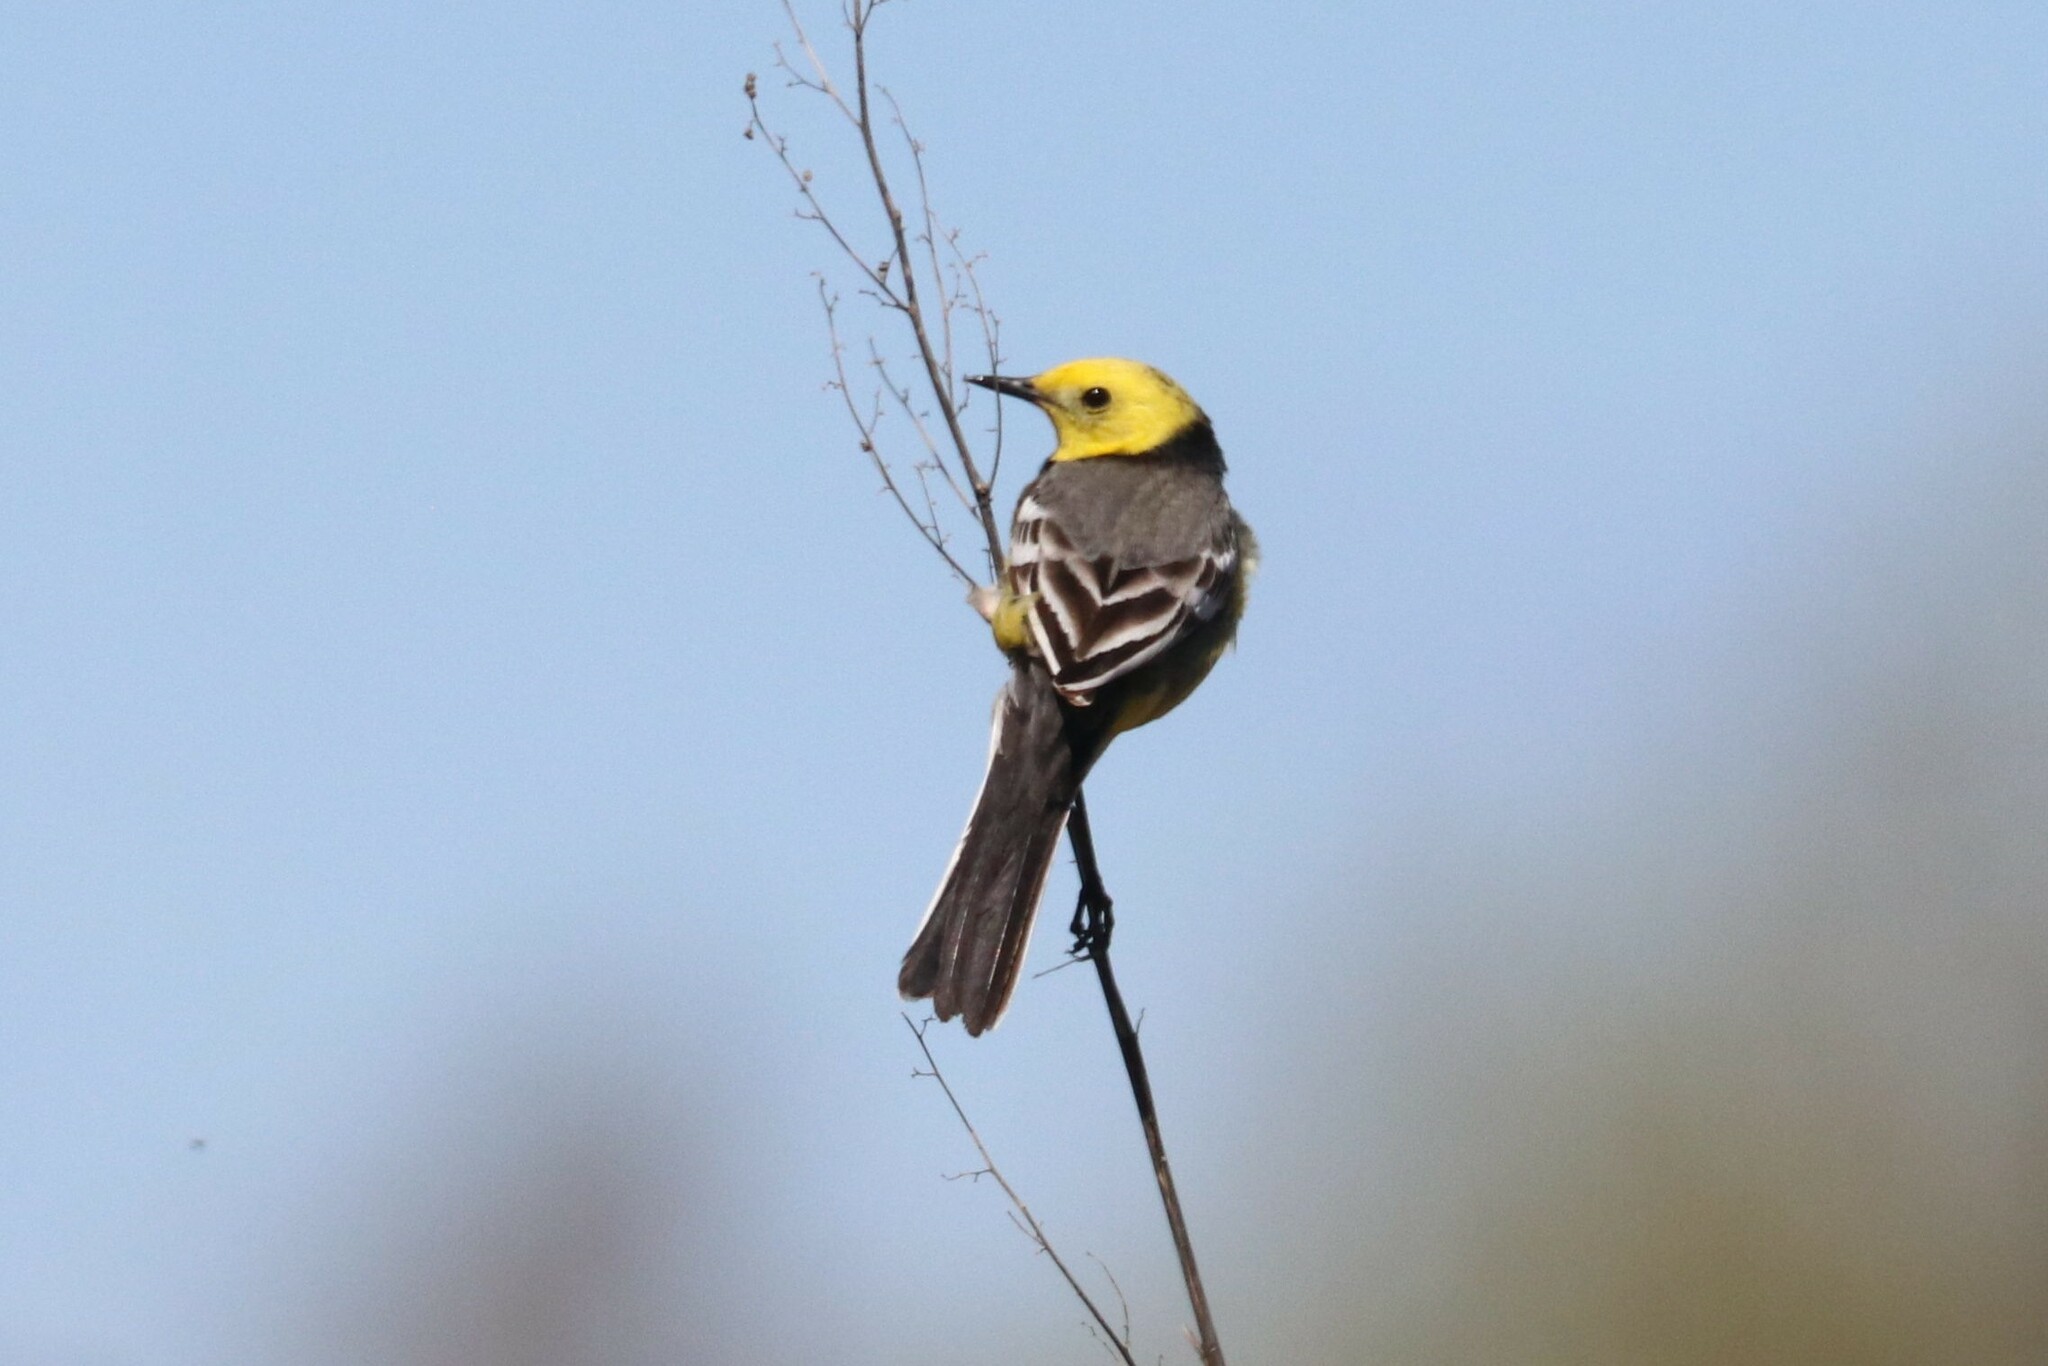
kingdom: Animalia
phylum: Chordata
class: Aves
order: Passeriformes
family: Motacillidae
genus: Motacilla
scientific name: Motacilla citreola
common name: Citrine wagtail
